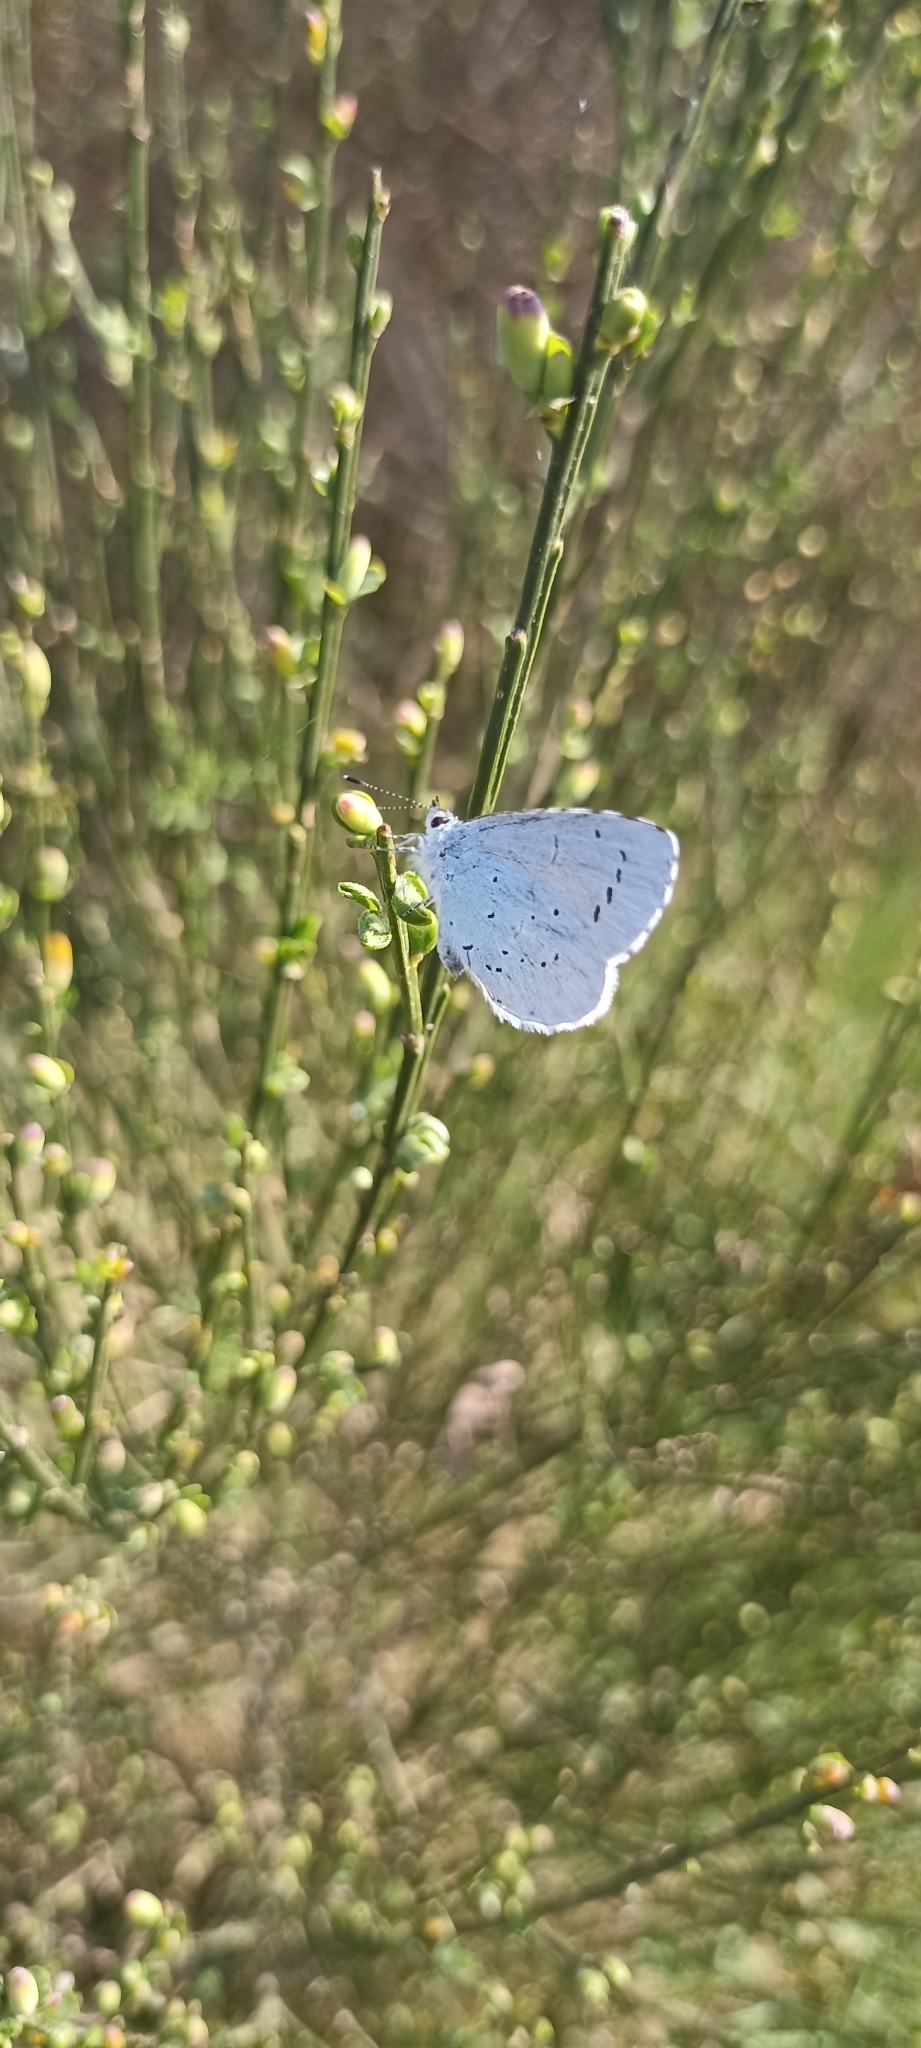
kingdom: Animalia
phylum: Arthropoda
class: Insecta
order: Lepidoptera
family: Lycaenidae
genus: Celastrina
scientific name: Celastrina argiolus
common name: Holly blue
